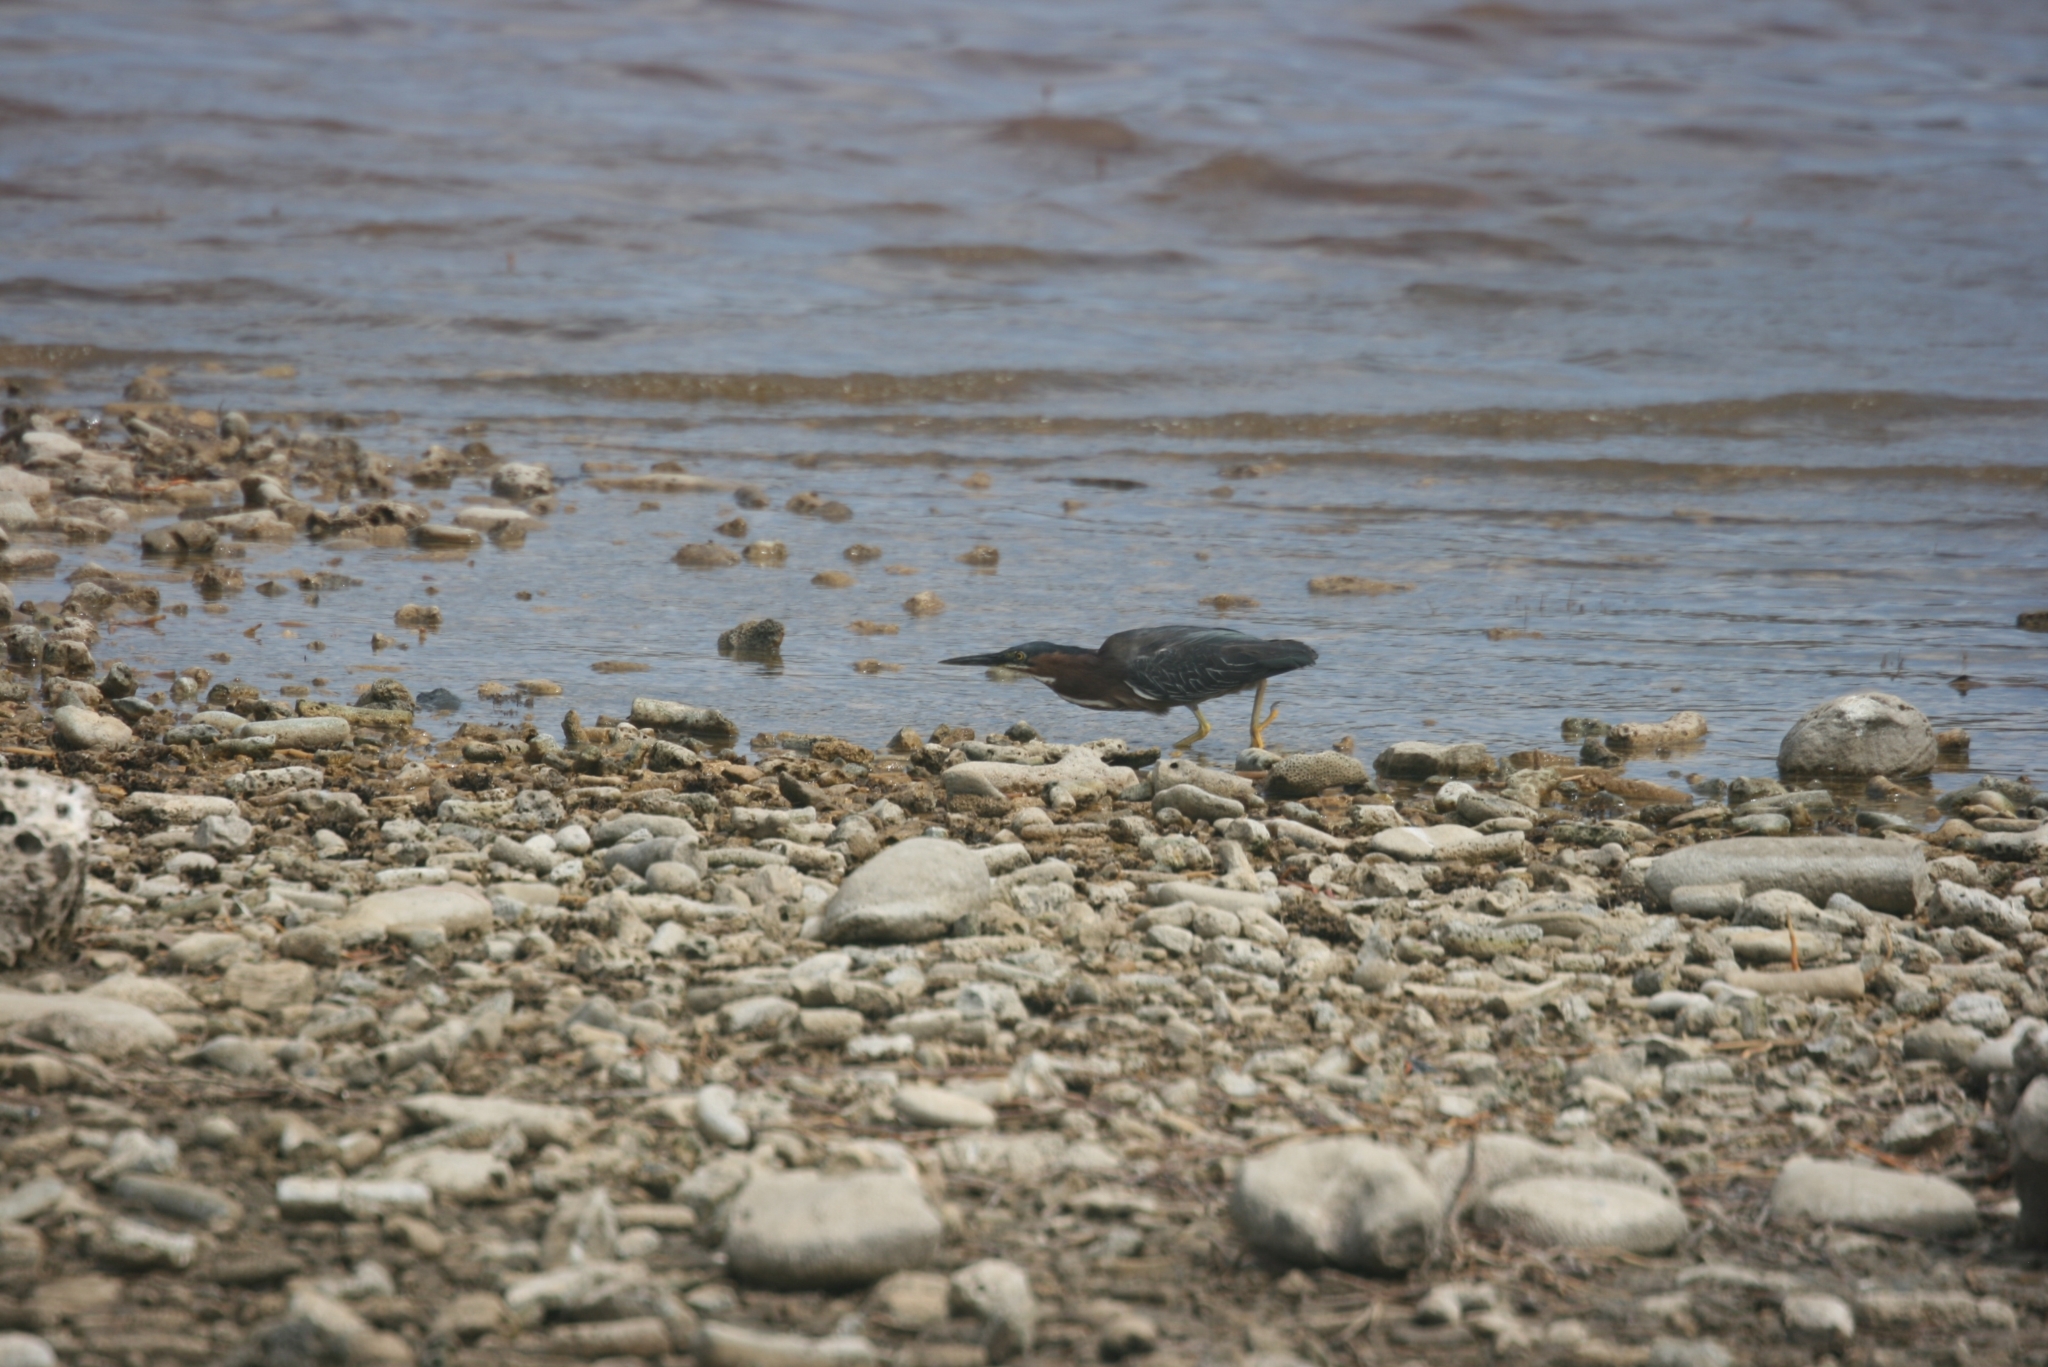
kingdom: Animalia
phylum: Chordata
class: Aves
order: Pelecaniformes
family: Ardeidae
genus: Butorides
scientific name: Butorides virescens
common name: Green heron
